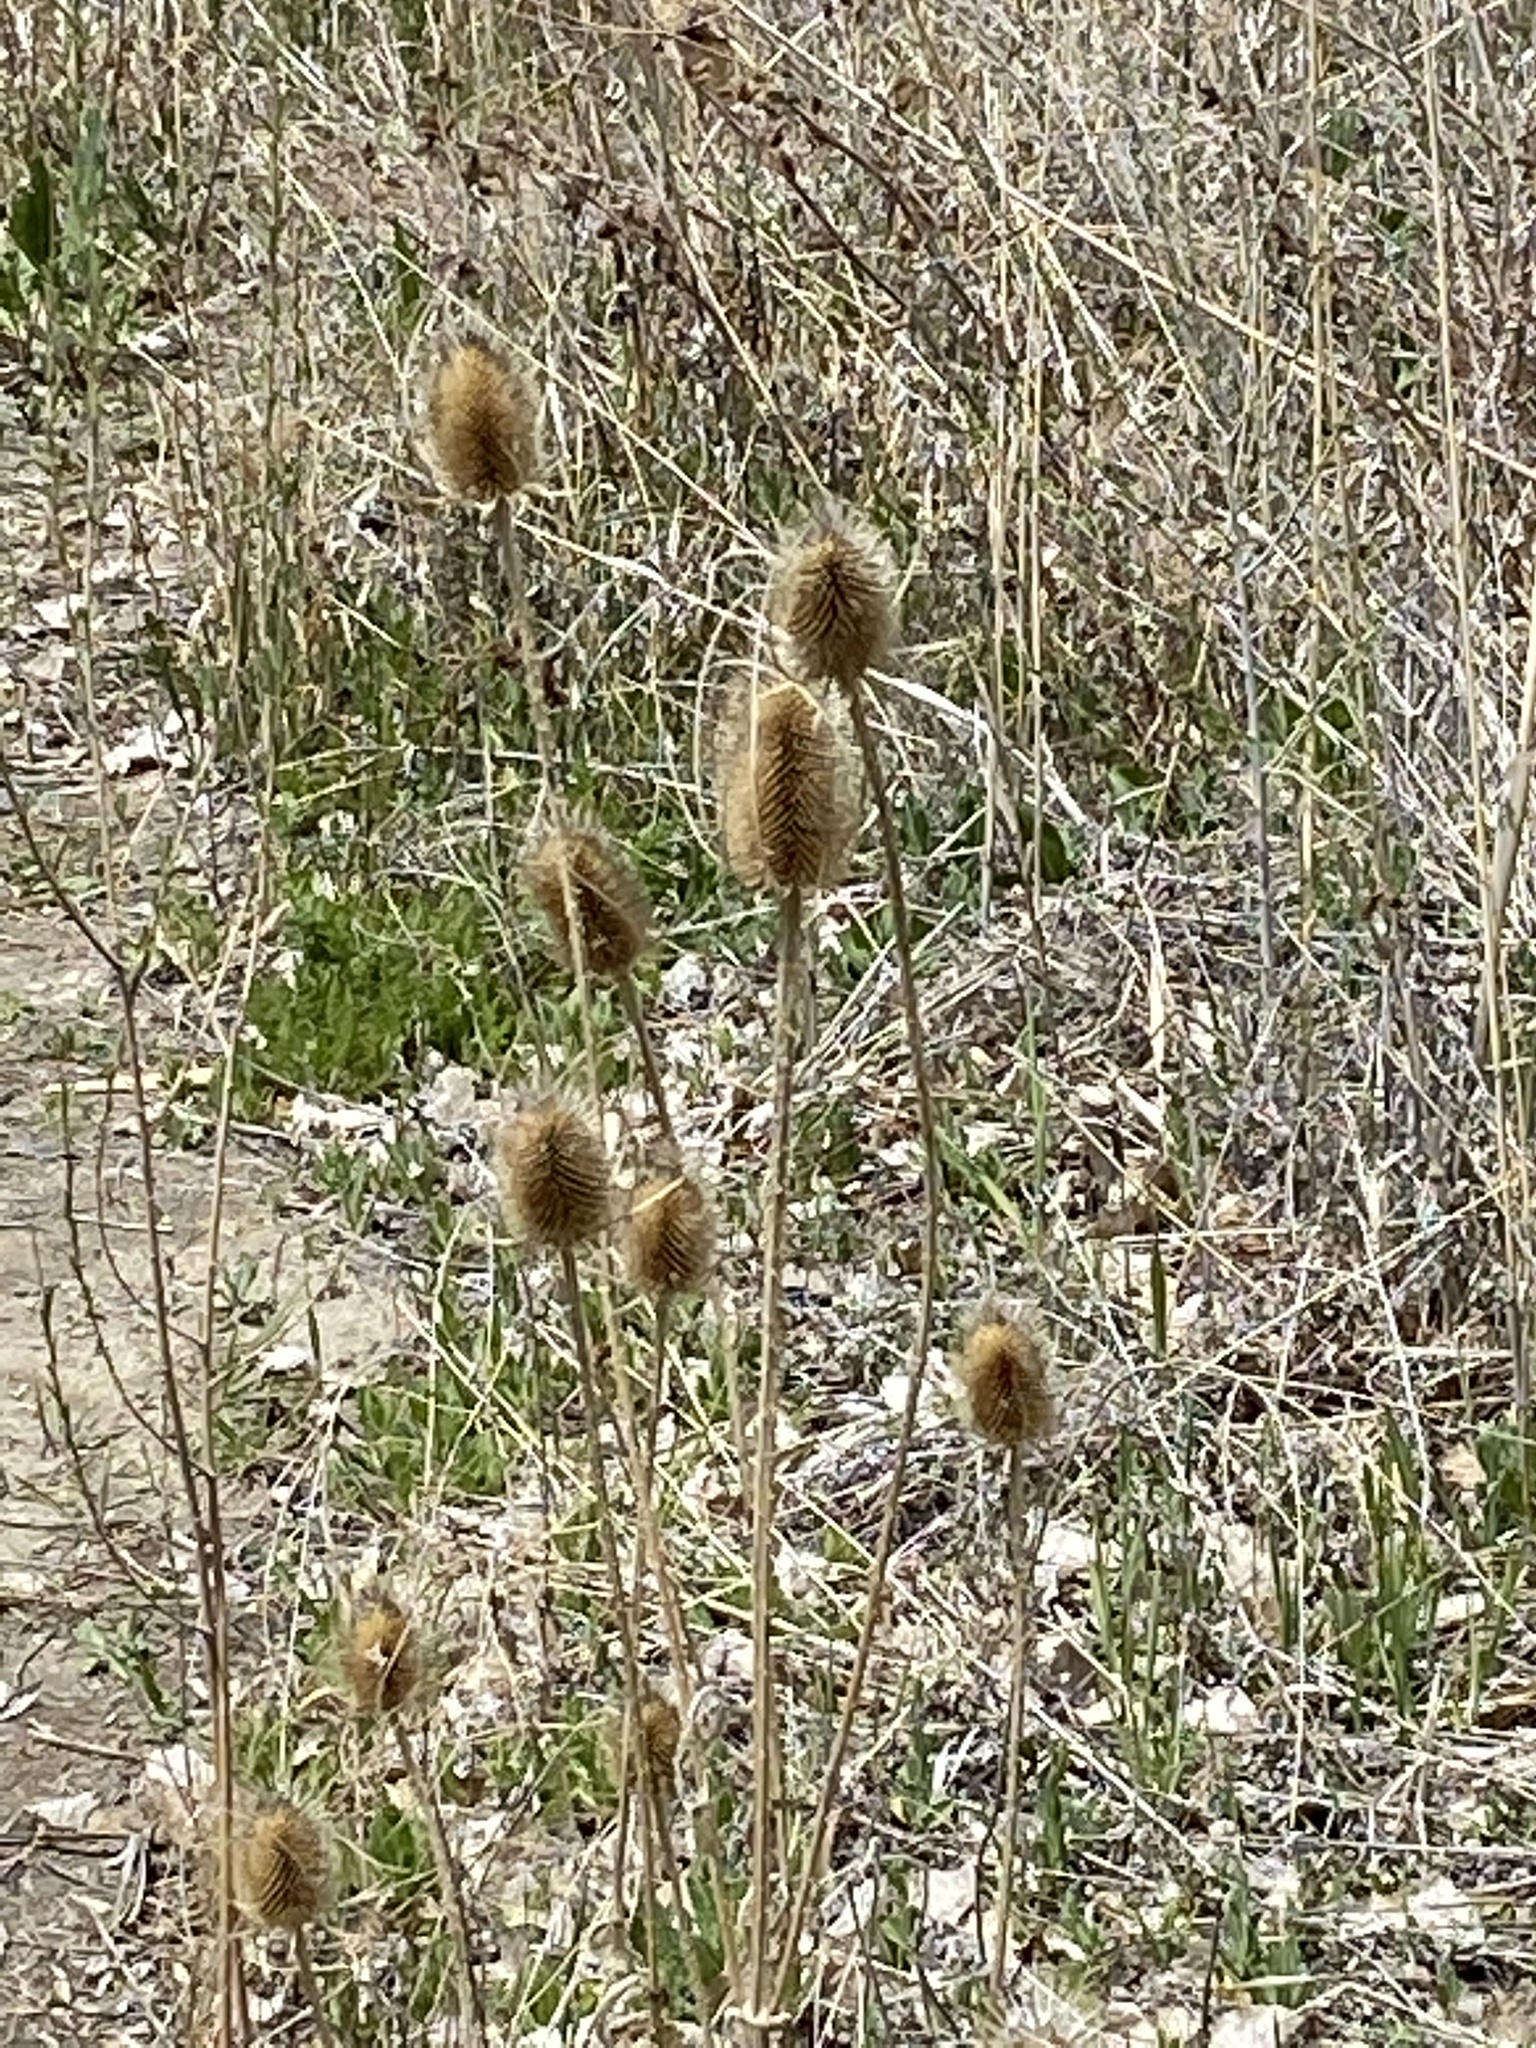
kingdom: Plantae
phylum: Tracheophyta
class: Magnoliopsida
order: Dipsacales
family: Caprifoliaceae
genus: Dipsacus
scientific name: Dipsacus fullonum
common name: Teasel
